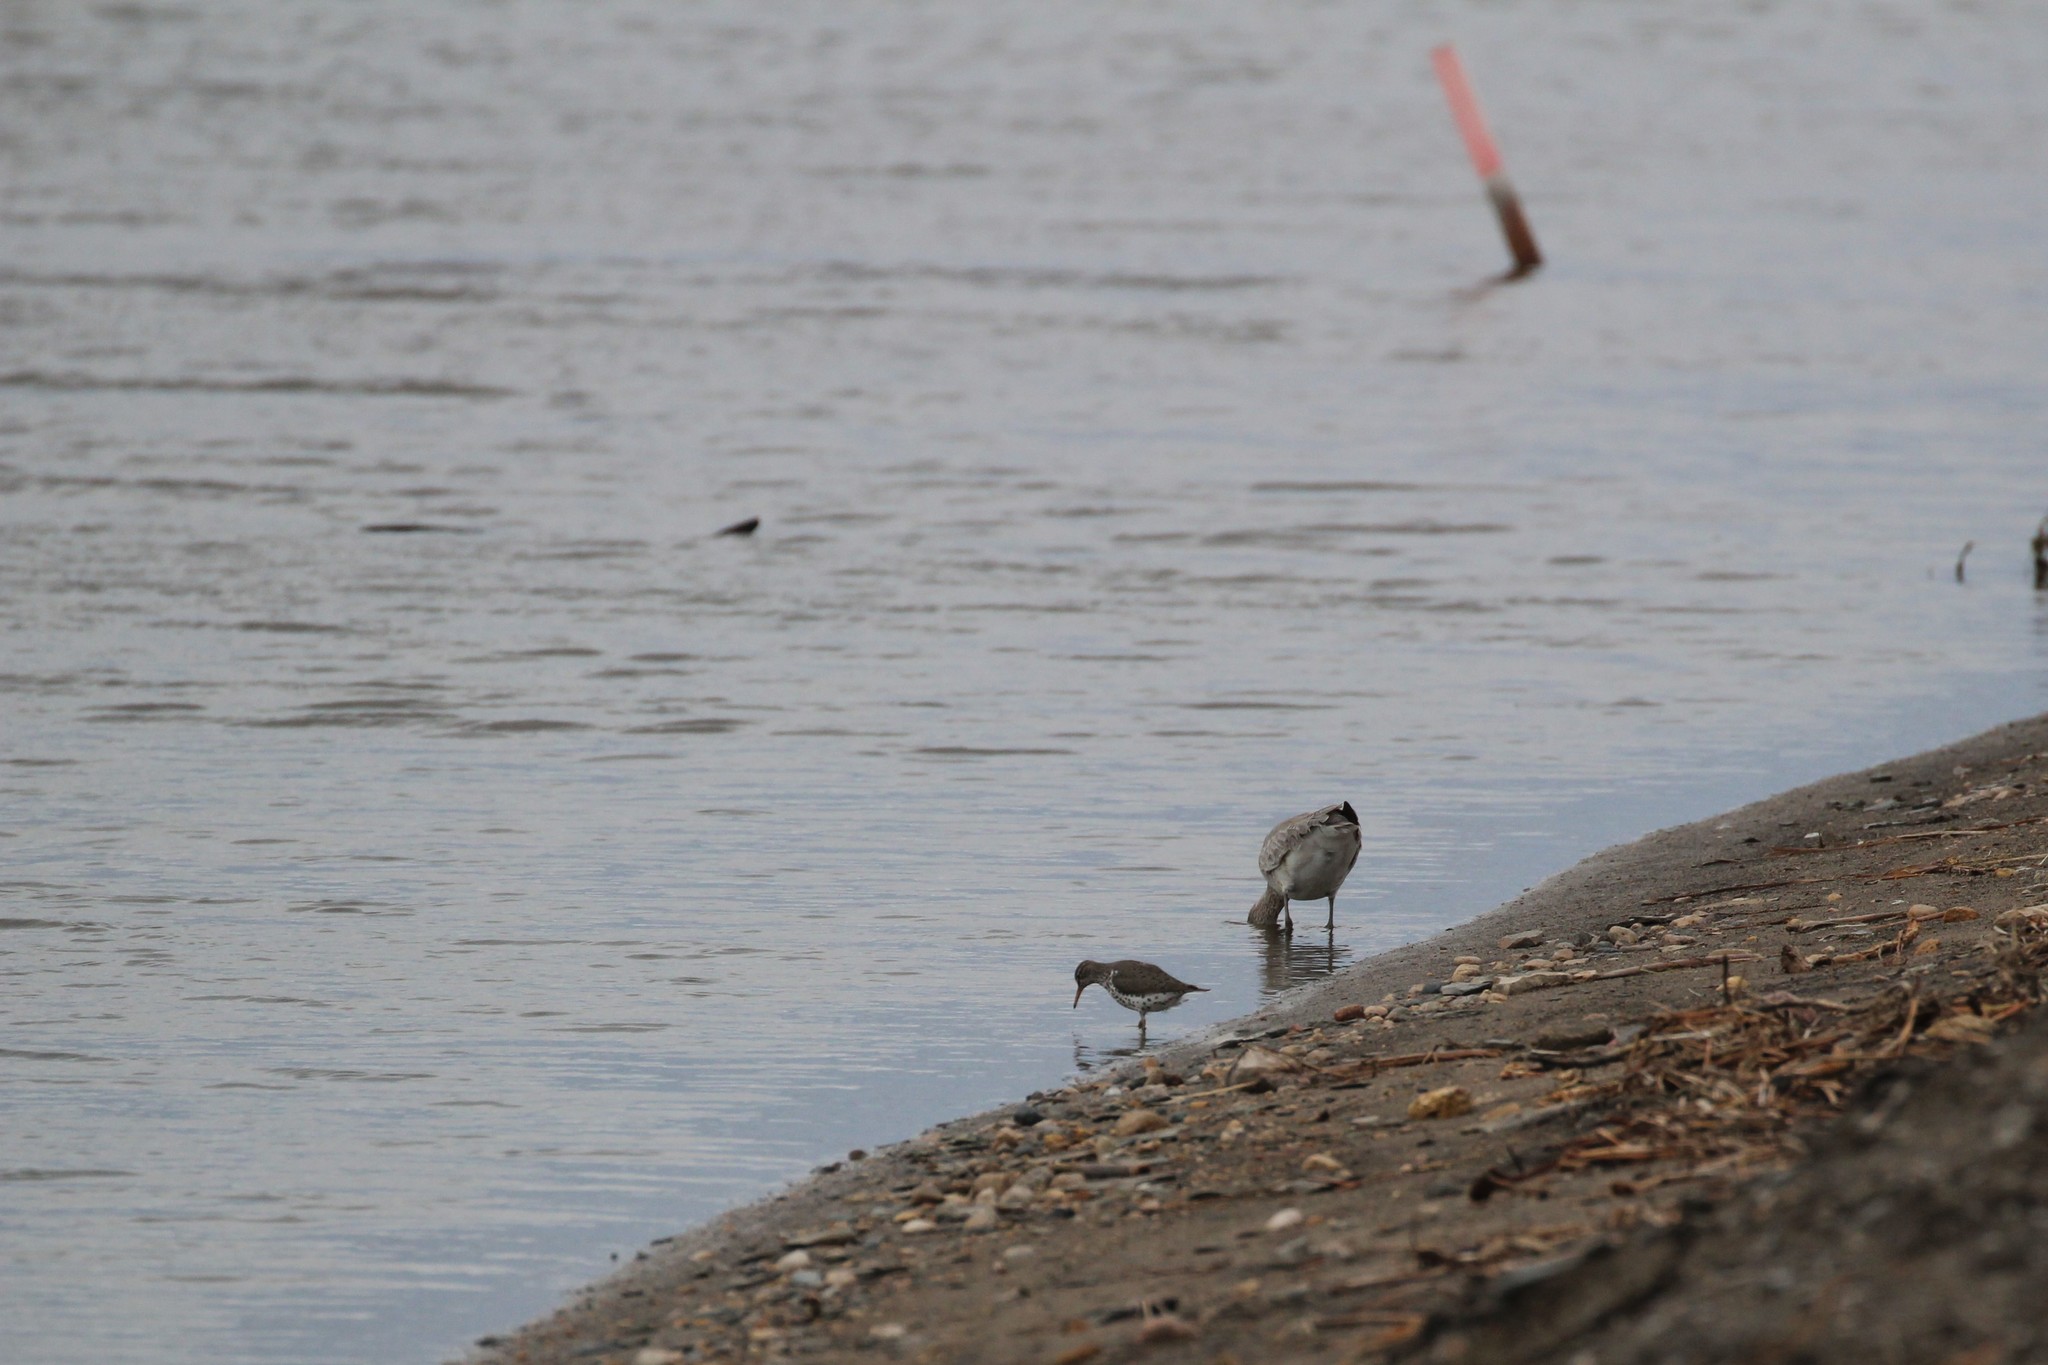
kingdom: Animalia
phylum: Chordata
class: Aves
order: Charadriiformes
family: Scolopacidae
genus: Actitis
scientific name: Actitis macularius
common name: Spotted sandpiper
